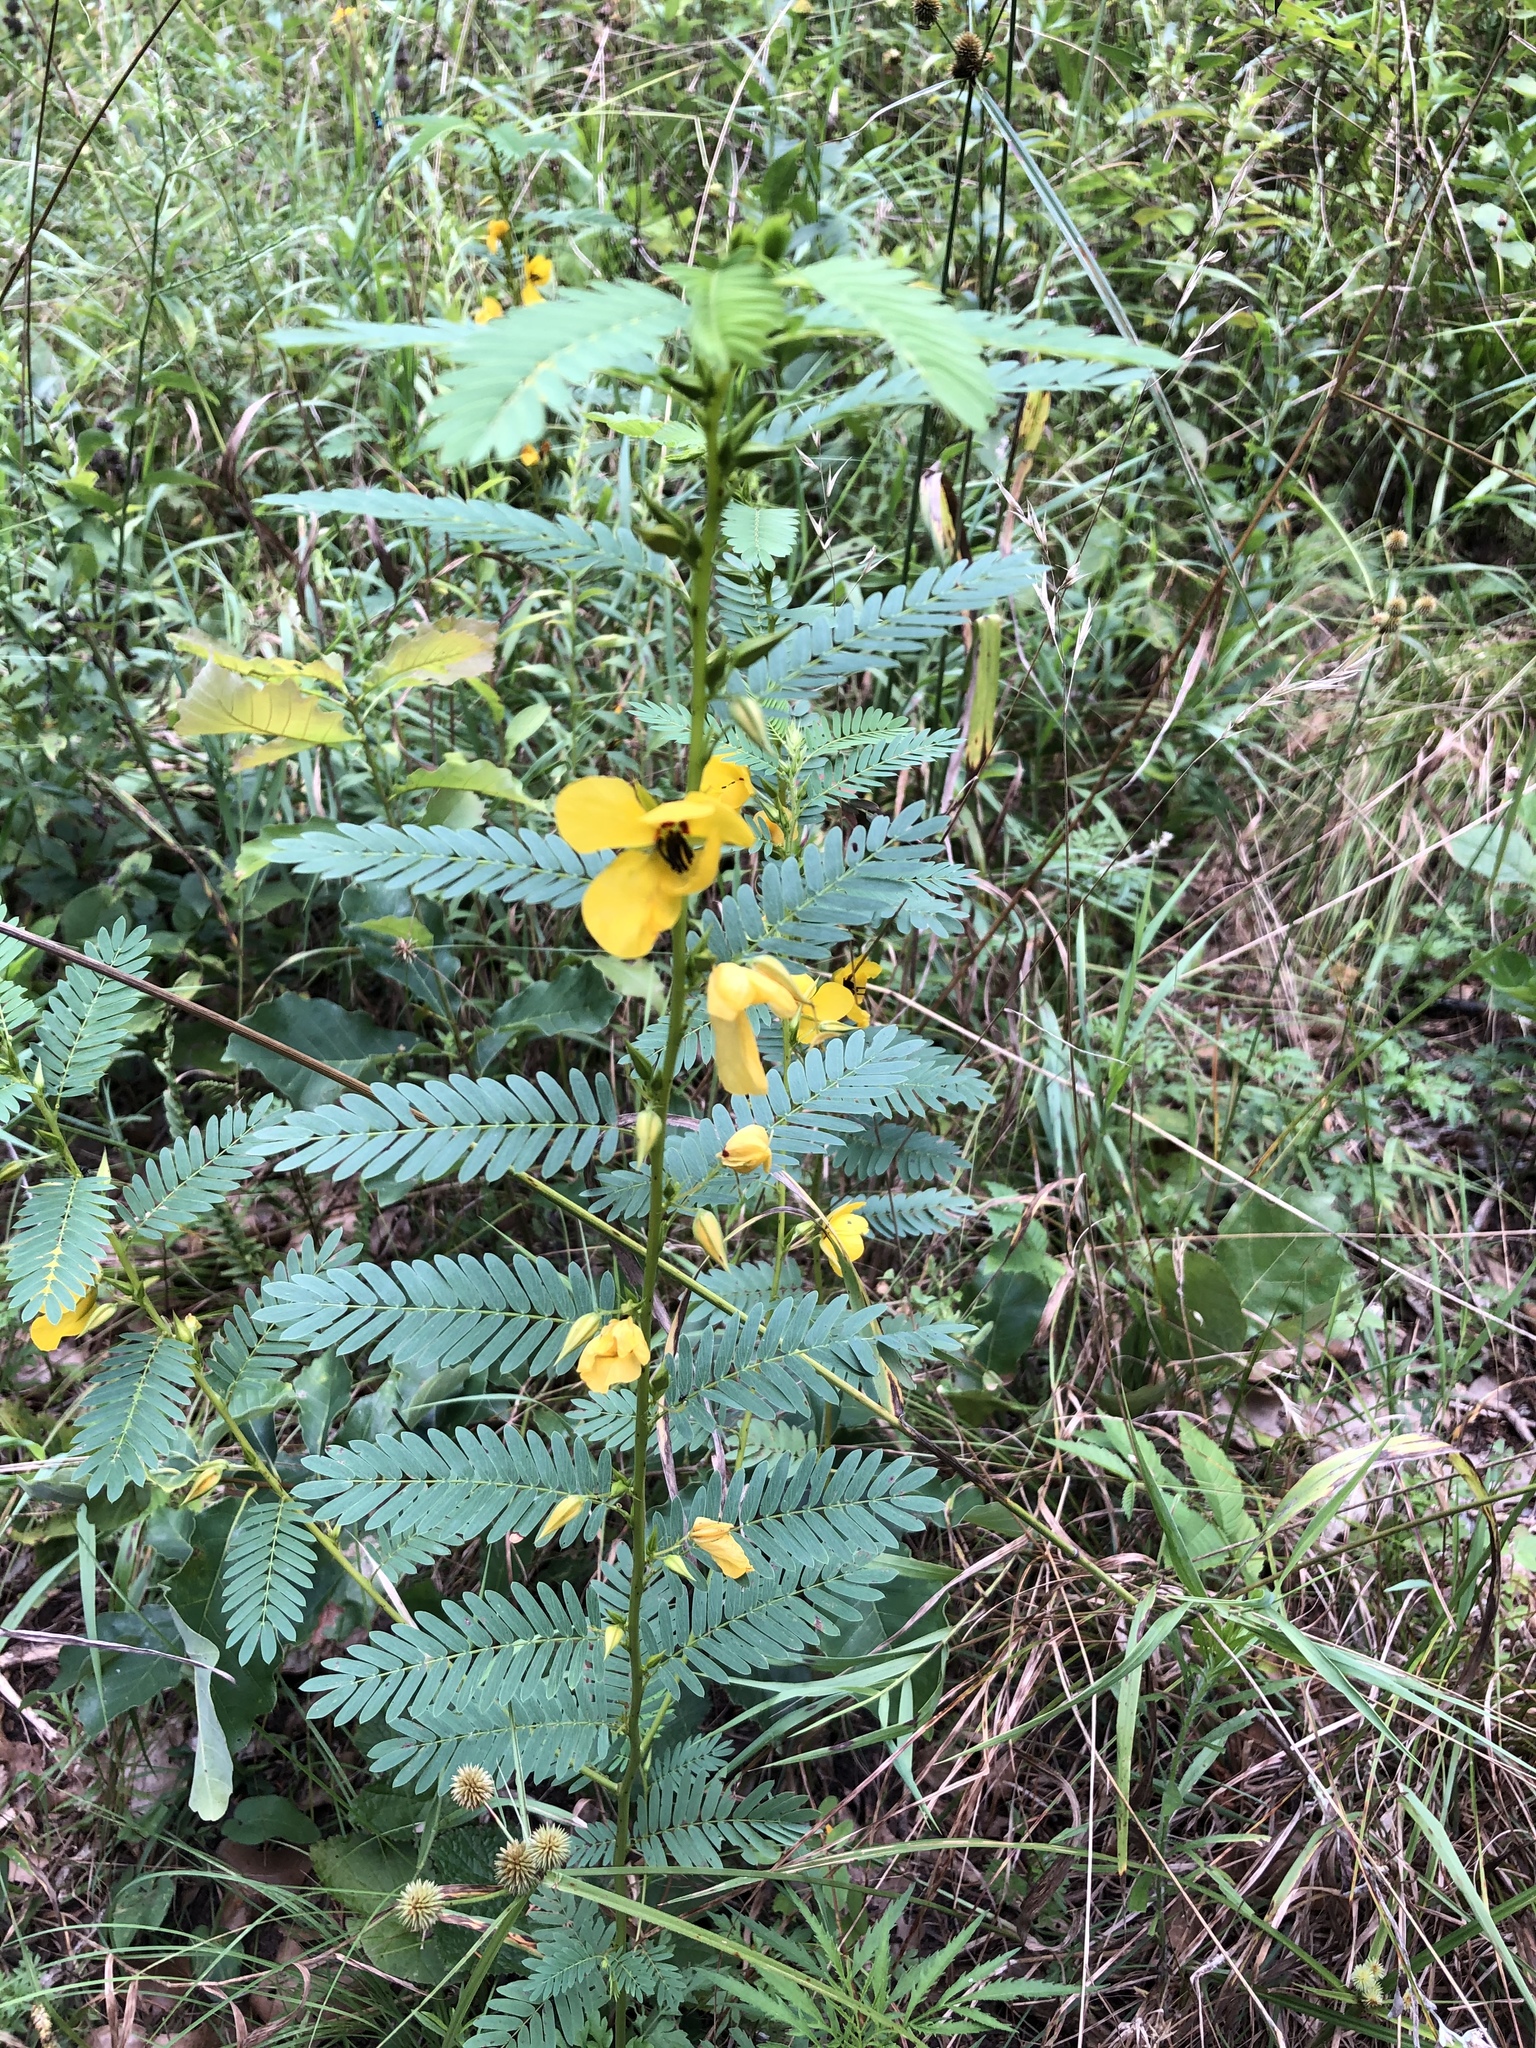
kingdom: Plantae
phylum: Tracheophyta
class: Magnoliopsida
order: Fabales
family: Fabaceae
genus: Chamaecrista
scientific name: Chamaecrista fasciculata
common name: Golden cassia
